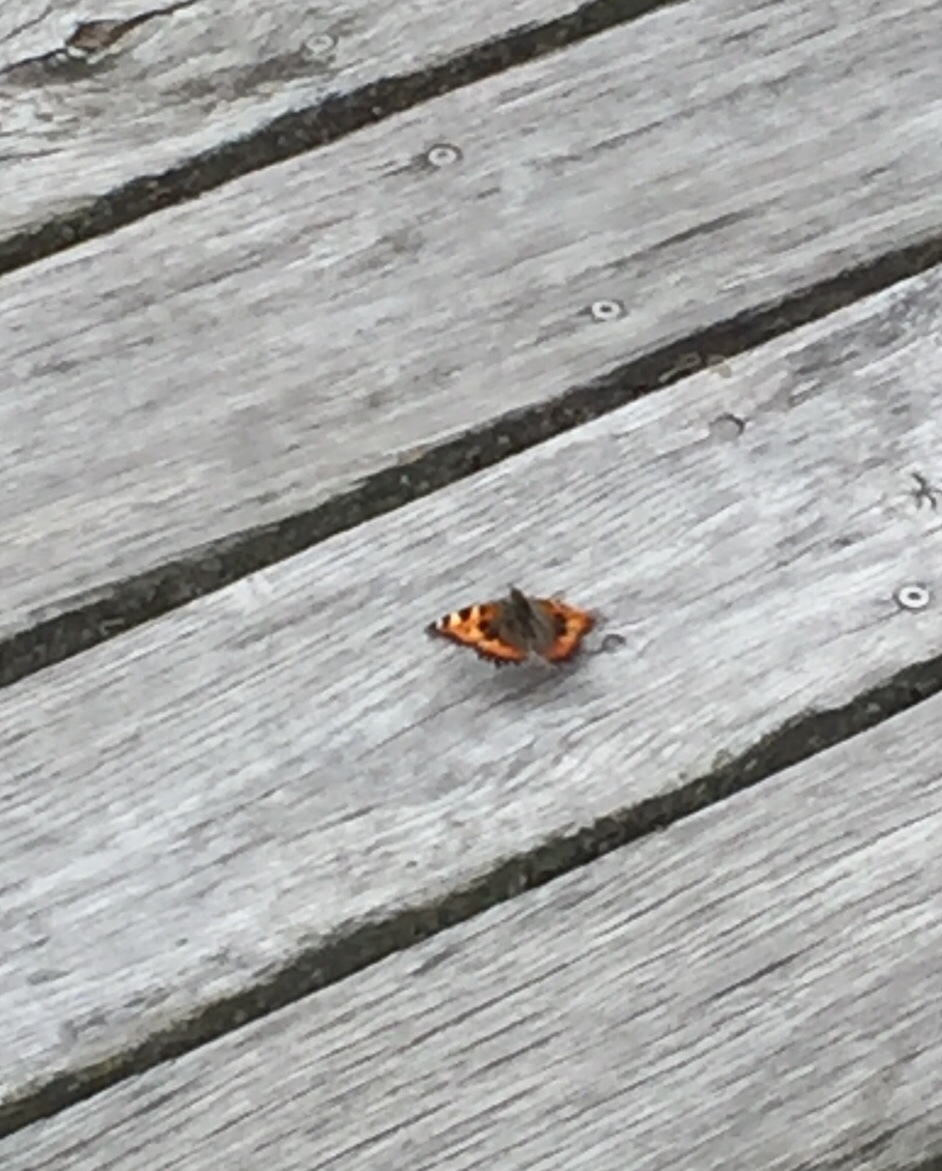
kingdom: Animalia
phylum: Arthropoda
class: Insecta
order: Lepidoptera
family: Nymphalidae
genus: Aglais
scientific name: Aglais urticae
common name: Small tortoiseshell
